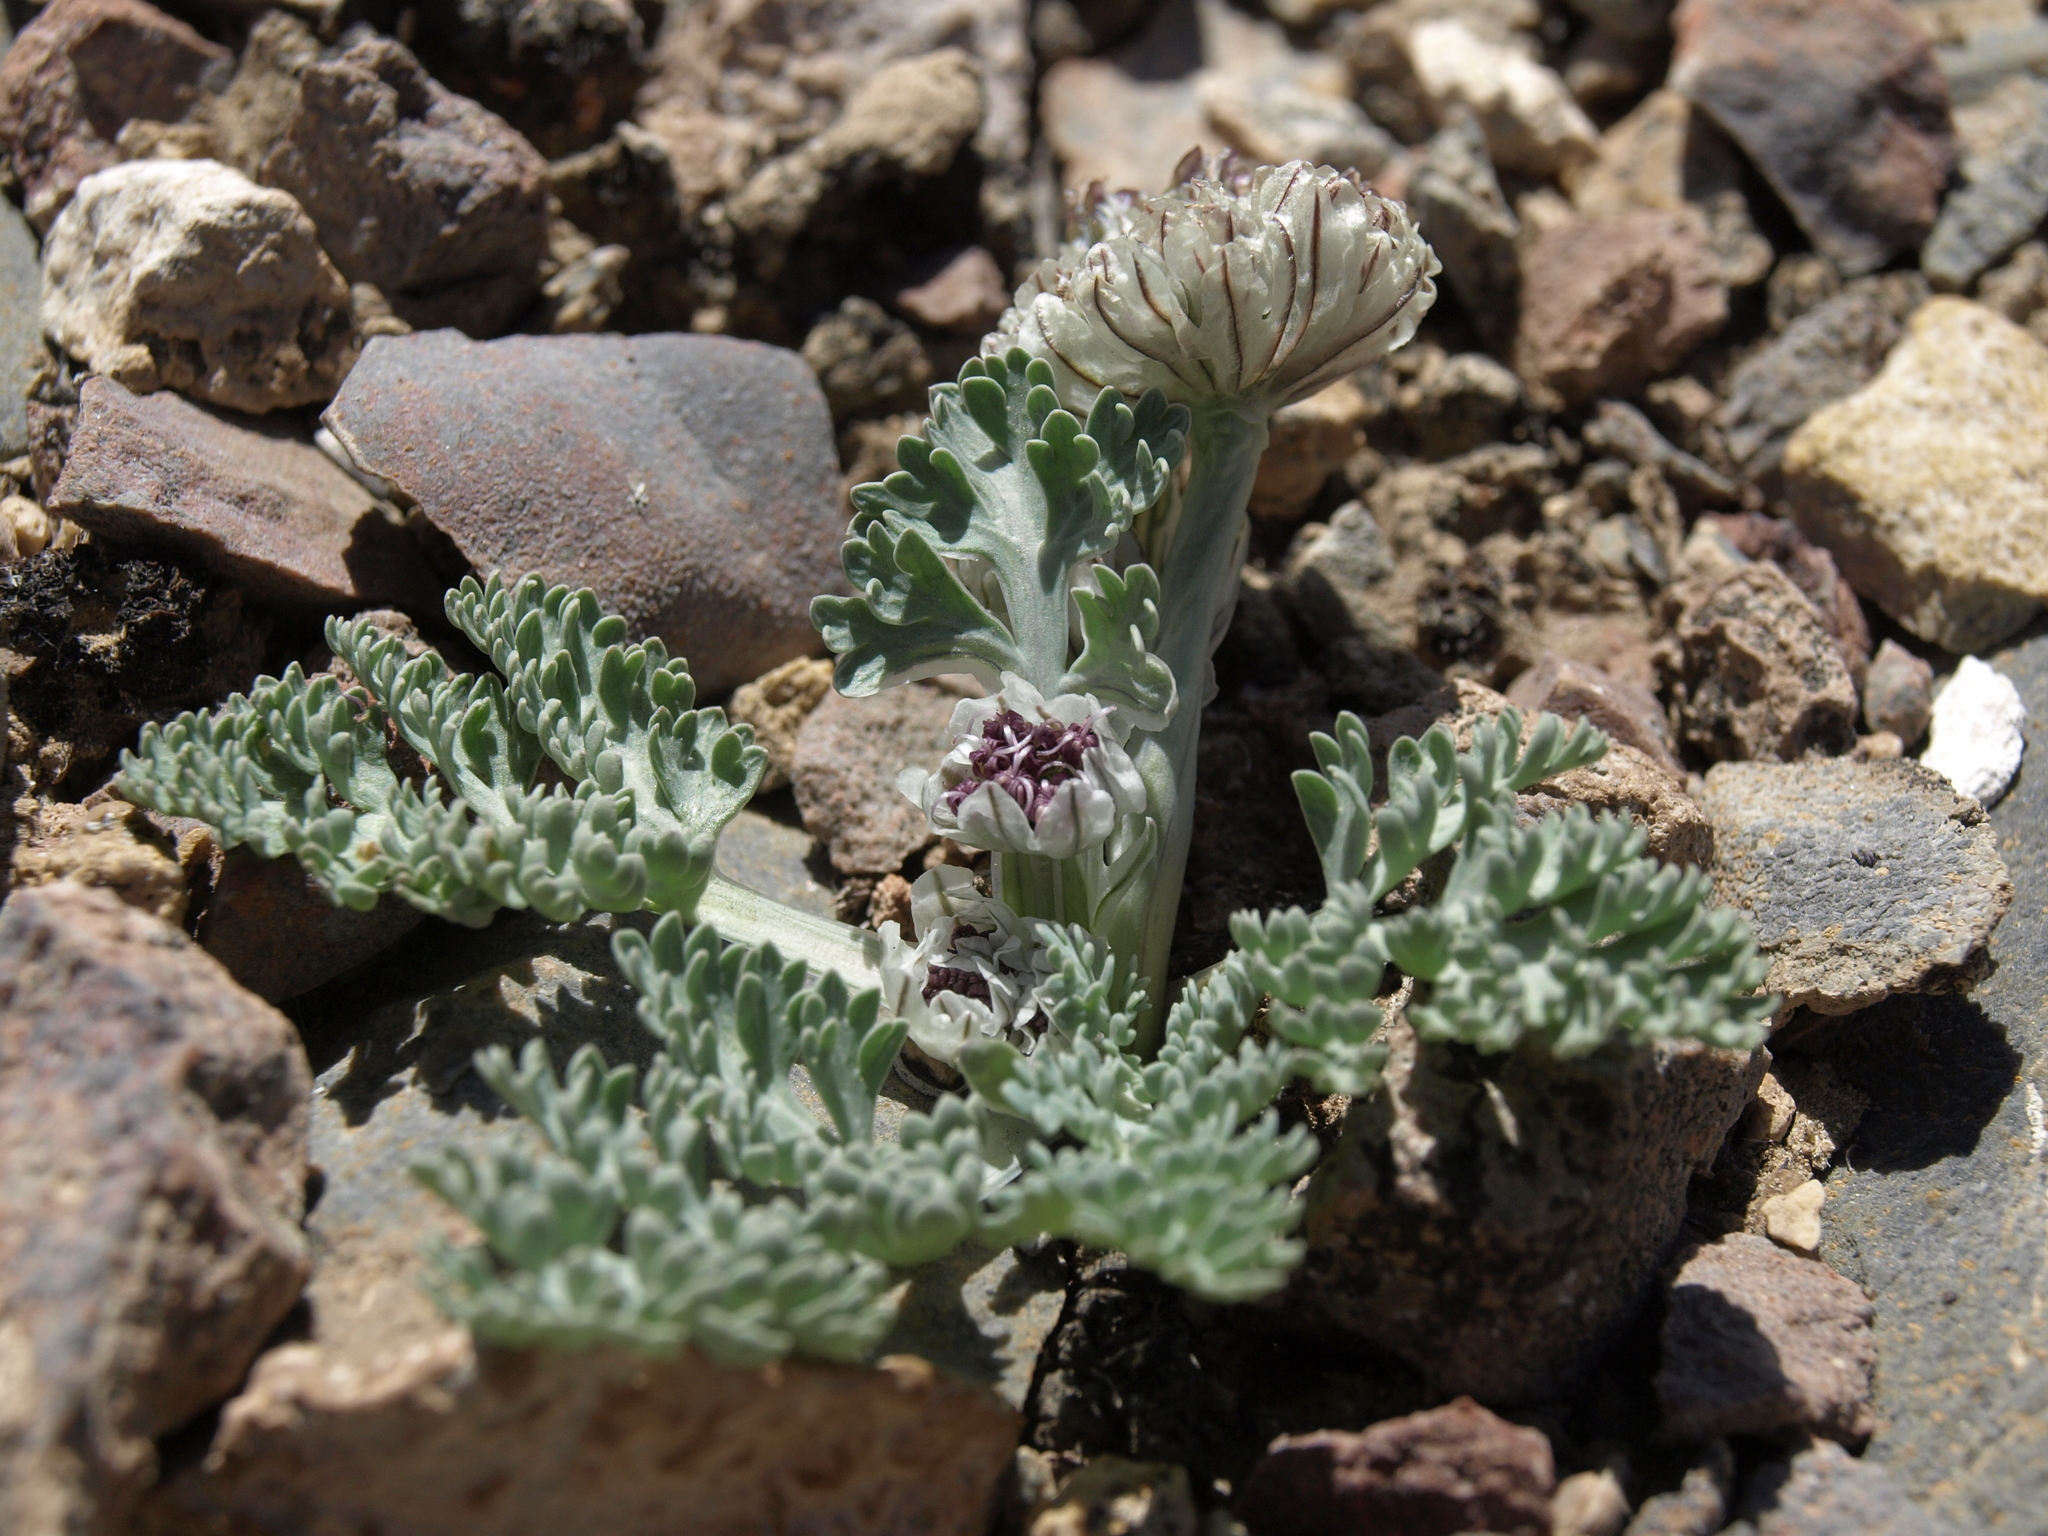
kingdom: Plantae
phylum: Tracheophyta
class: Magnoliopsida
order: Apiales
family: Apiaceae
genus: Vesper
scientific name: Vesper purpurascens
